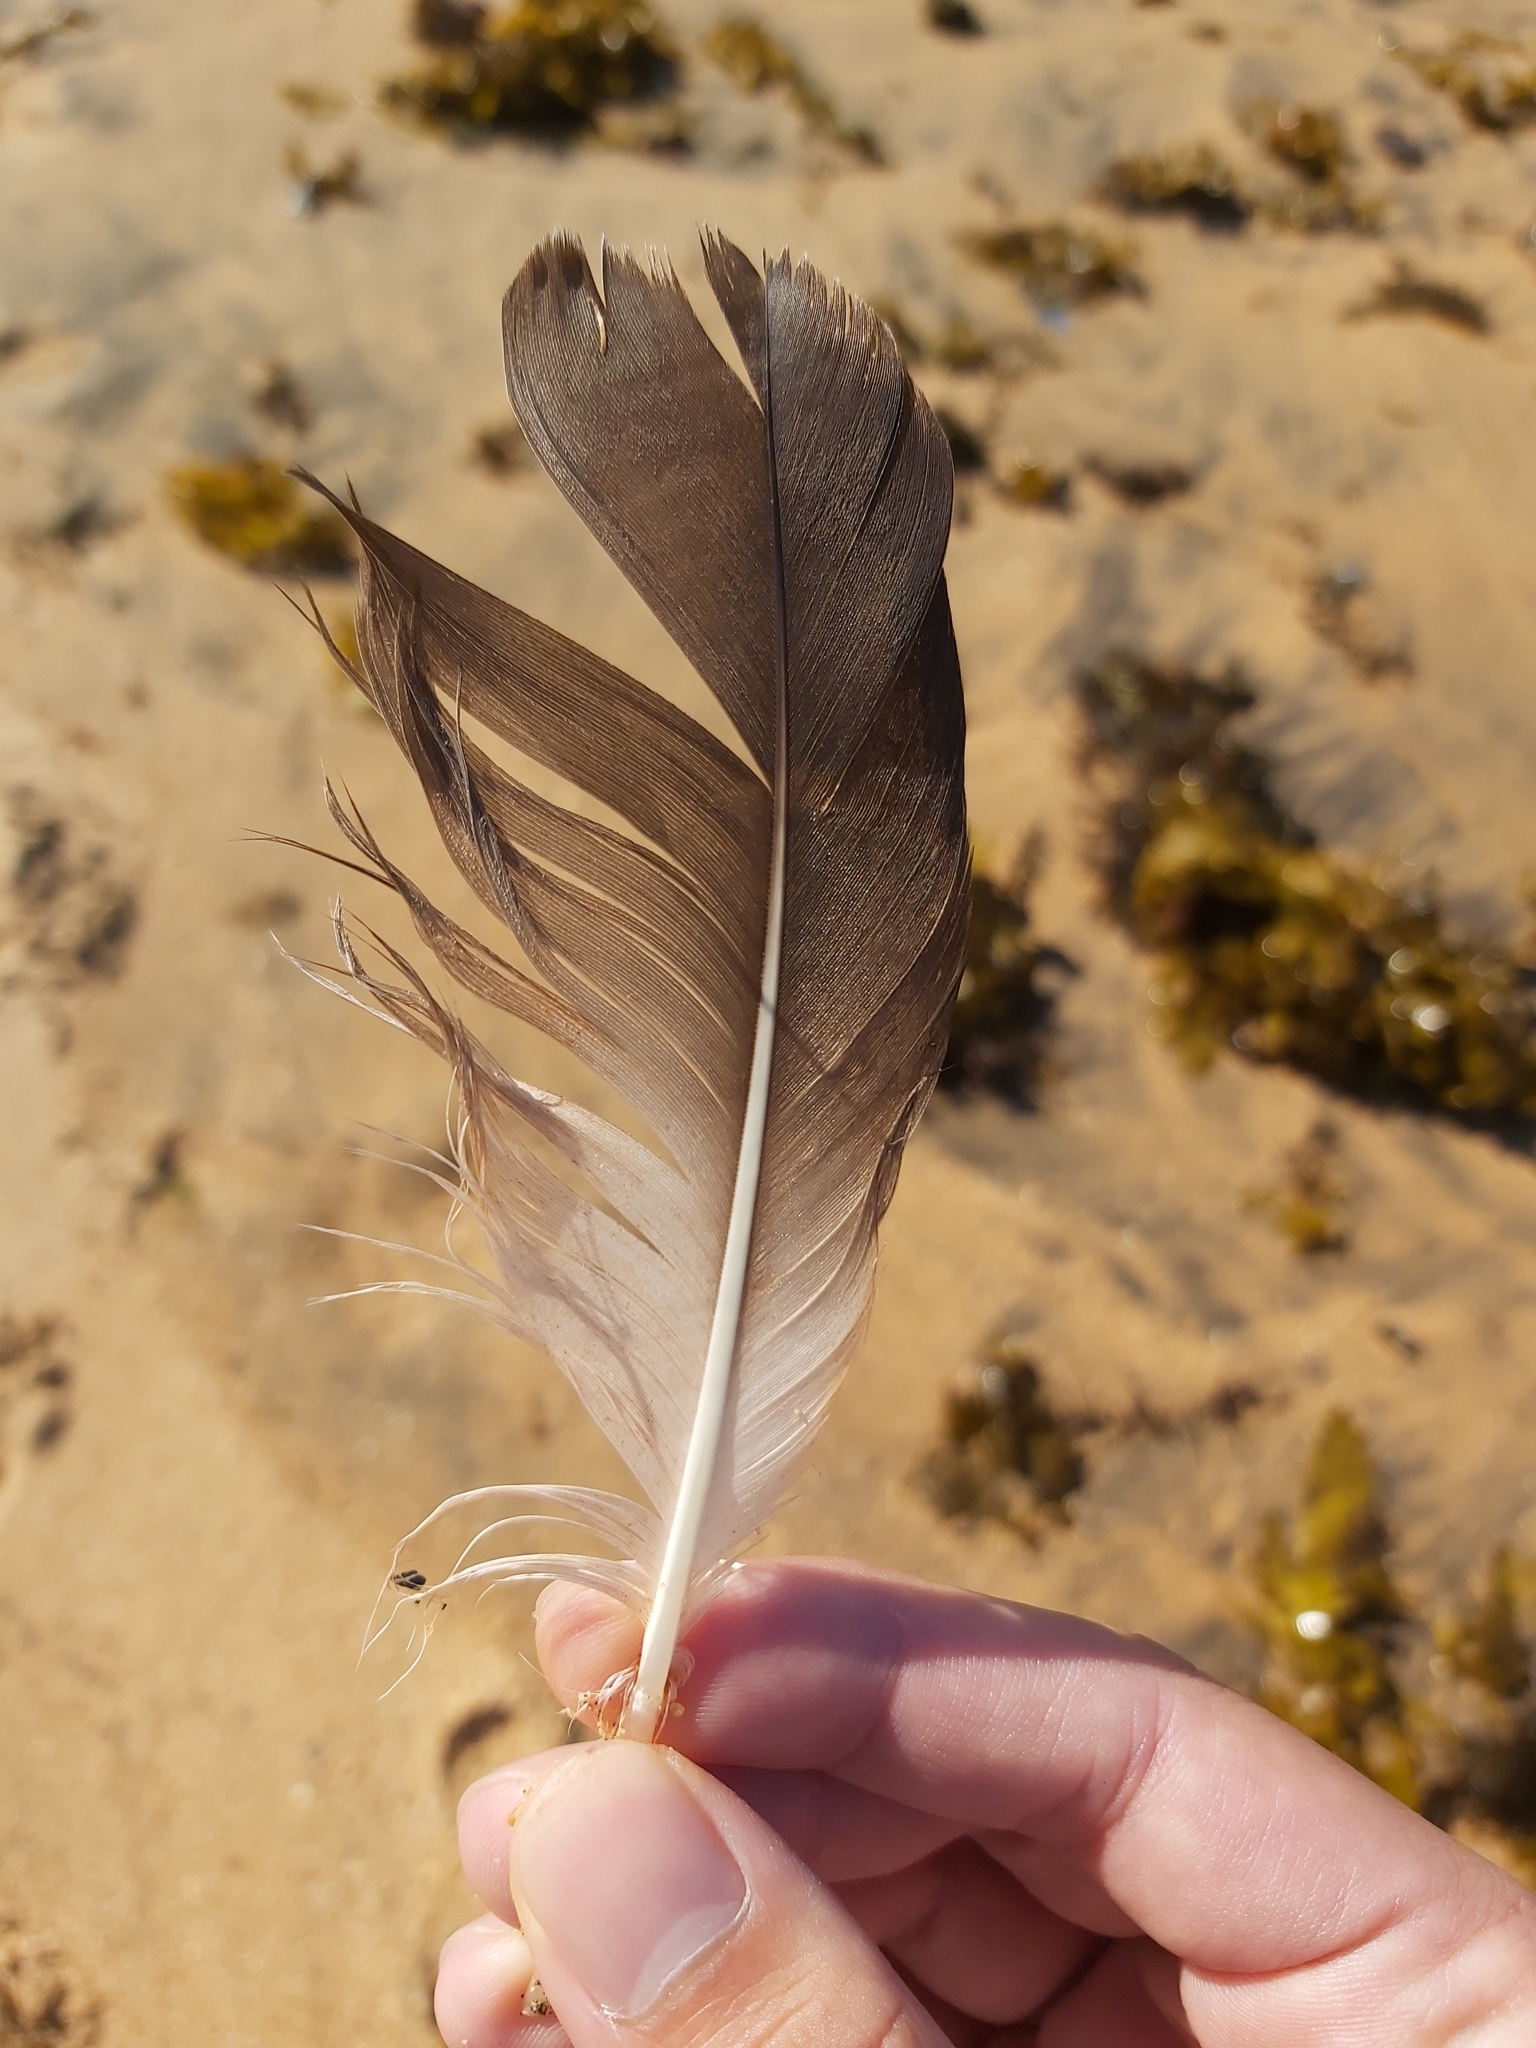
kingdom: Animalia
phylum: Chordata
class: Aves
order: Suliformes
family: Sulidae
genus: Morus
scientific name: Morus serrator
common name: Australasian gannet
